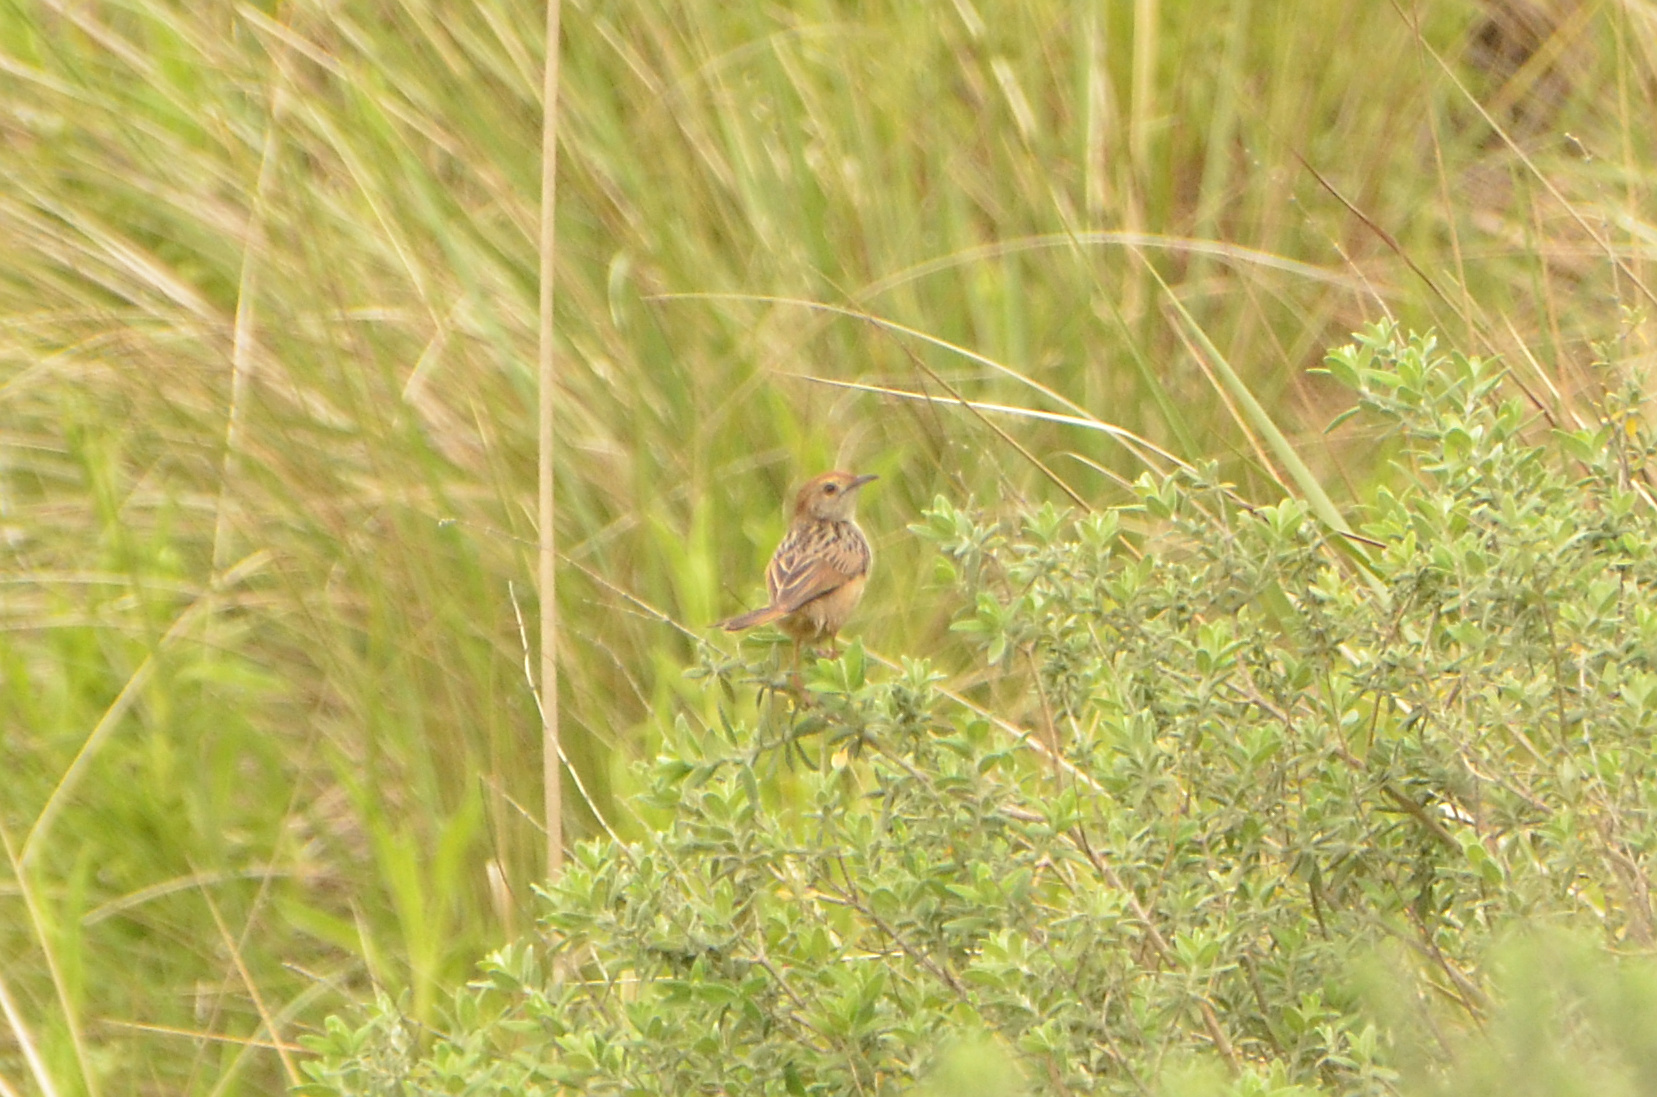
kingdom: Animalia
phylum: Chordata
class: Aves
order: Passeriformes
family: Cisticolidae
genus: Cisticola
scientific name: Cisticola lais
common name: Wailing cisticola
